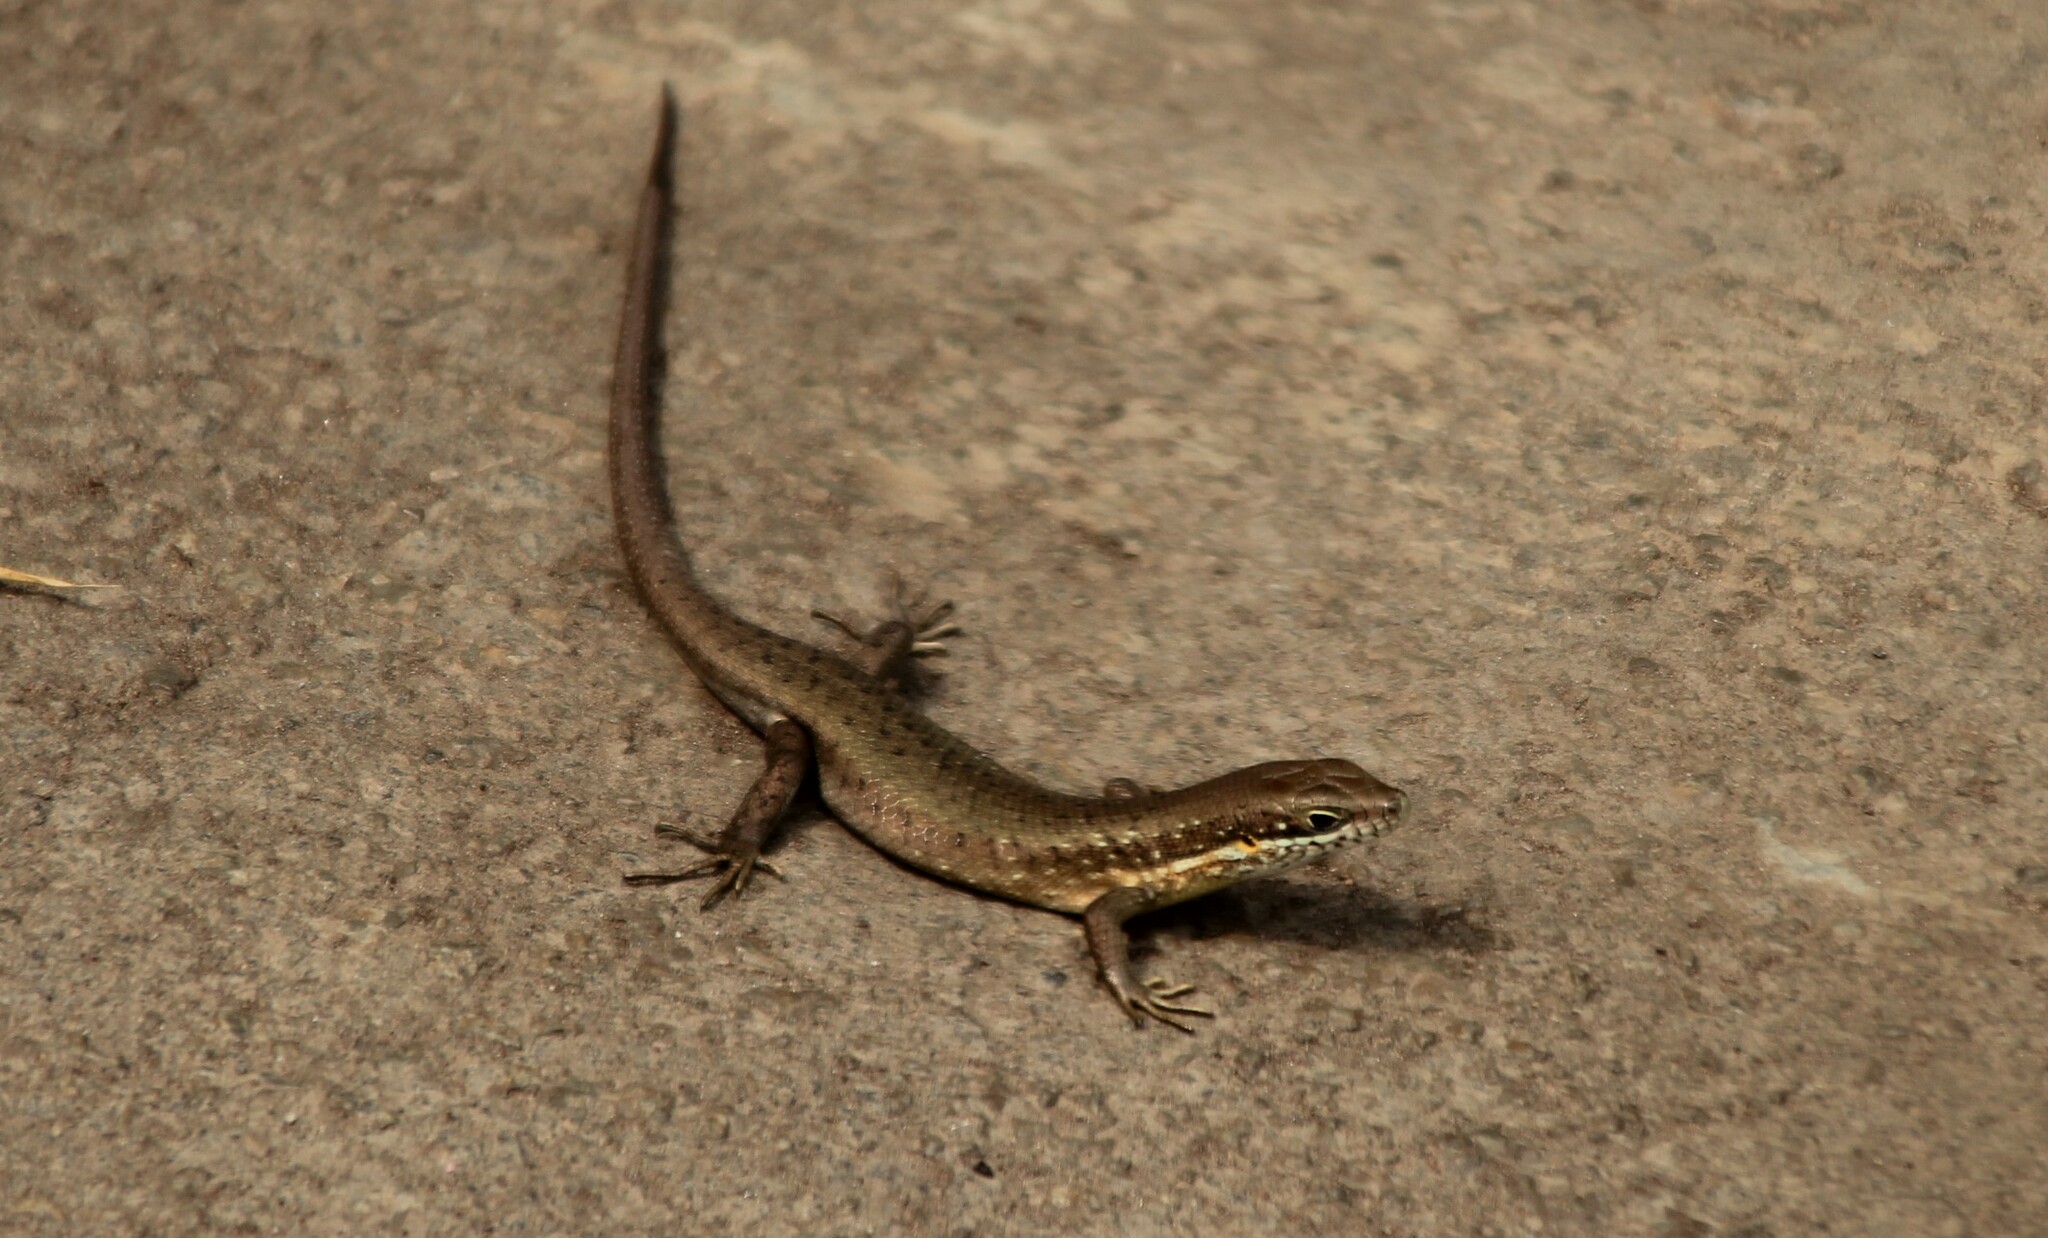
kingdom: Animalia
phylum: Chordata
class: Squamata
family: Scincidae
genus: Trachylepis
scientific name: Trachylepis maculilabris
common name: Speckle-lipped mabuya
